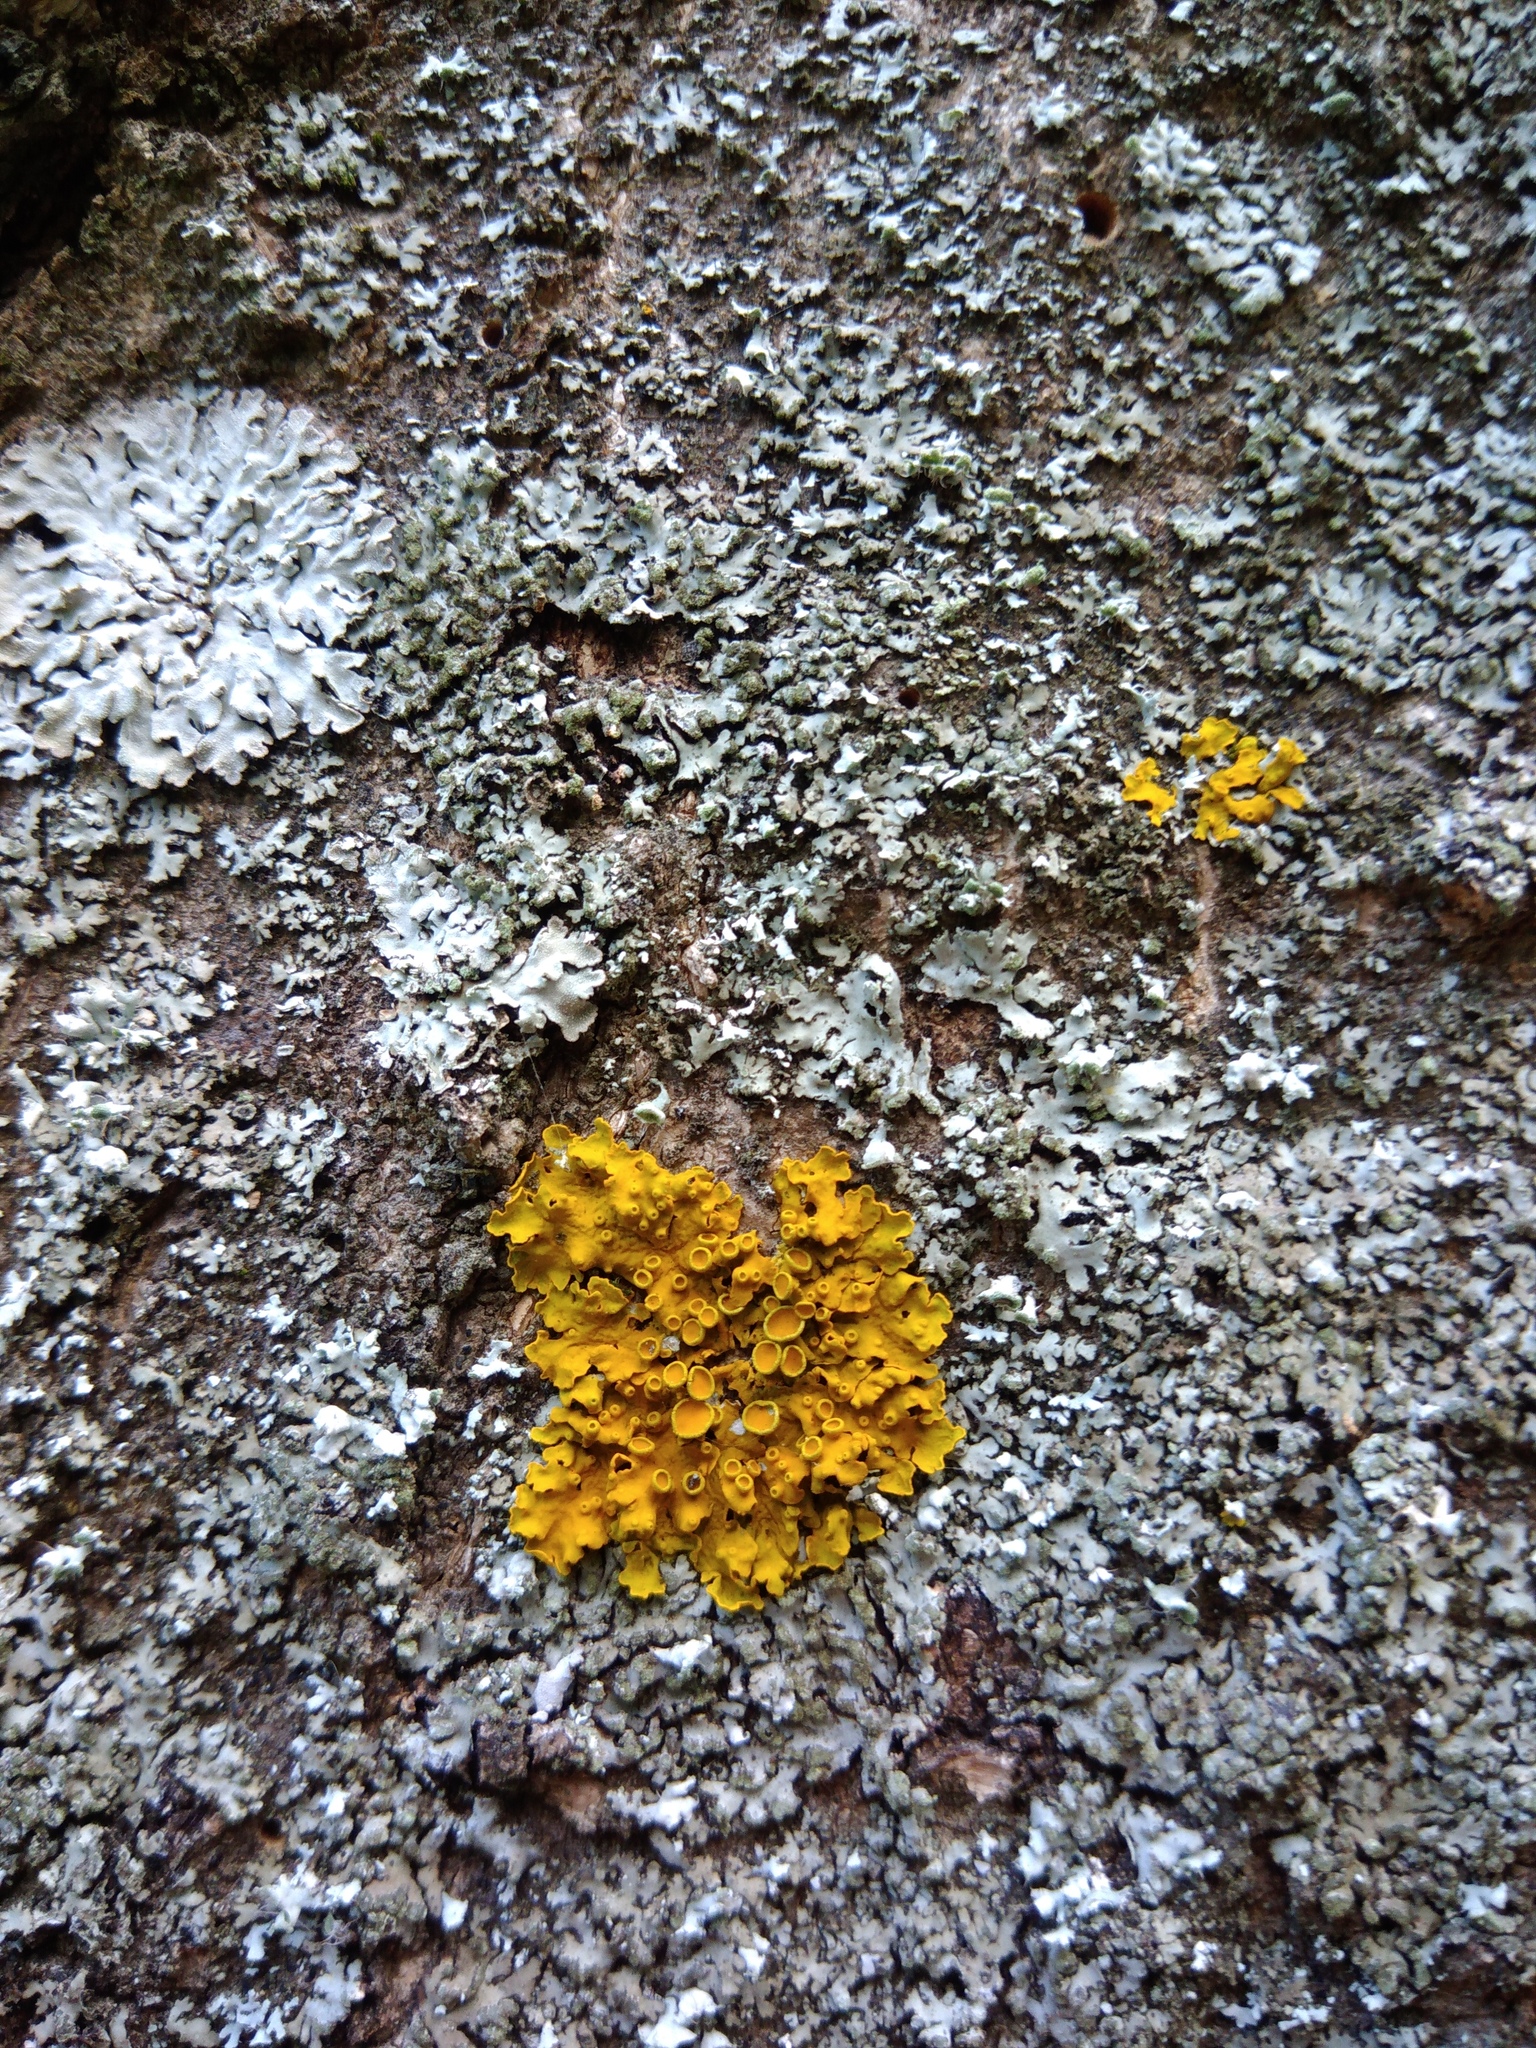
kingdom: Fungi
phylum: Ascomycota
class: Lecanoromycetes
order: Teloschistales
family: Teloschistaceae
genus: Xanthoria
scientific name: Xanthoria parietina
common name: Common orange lichen
